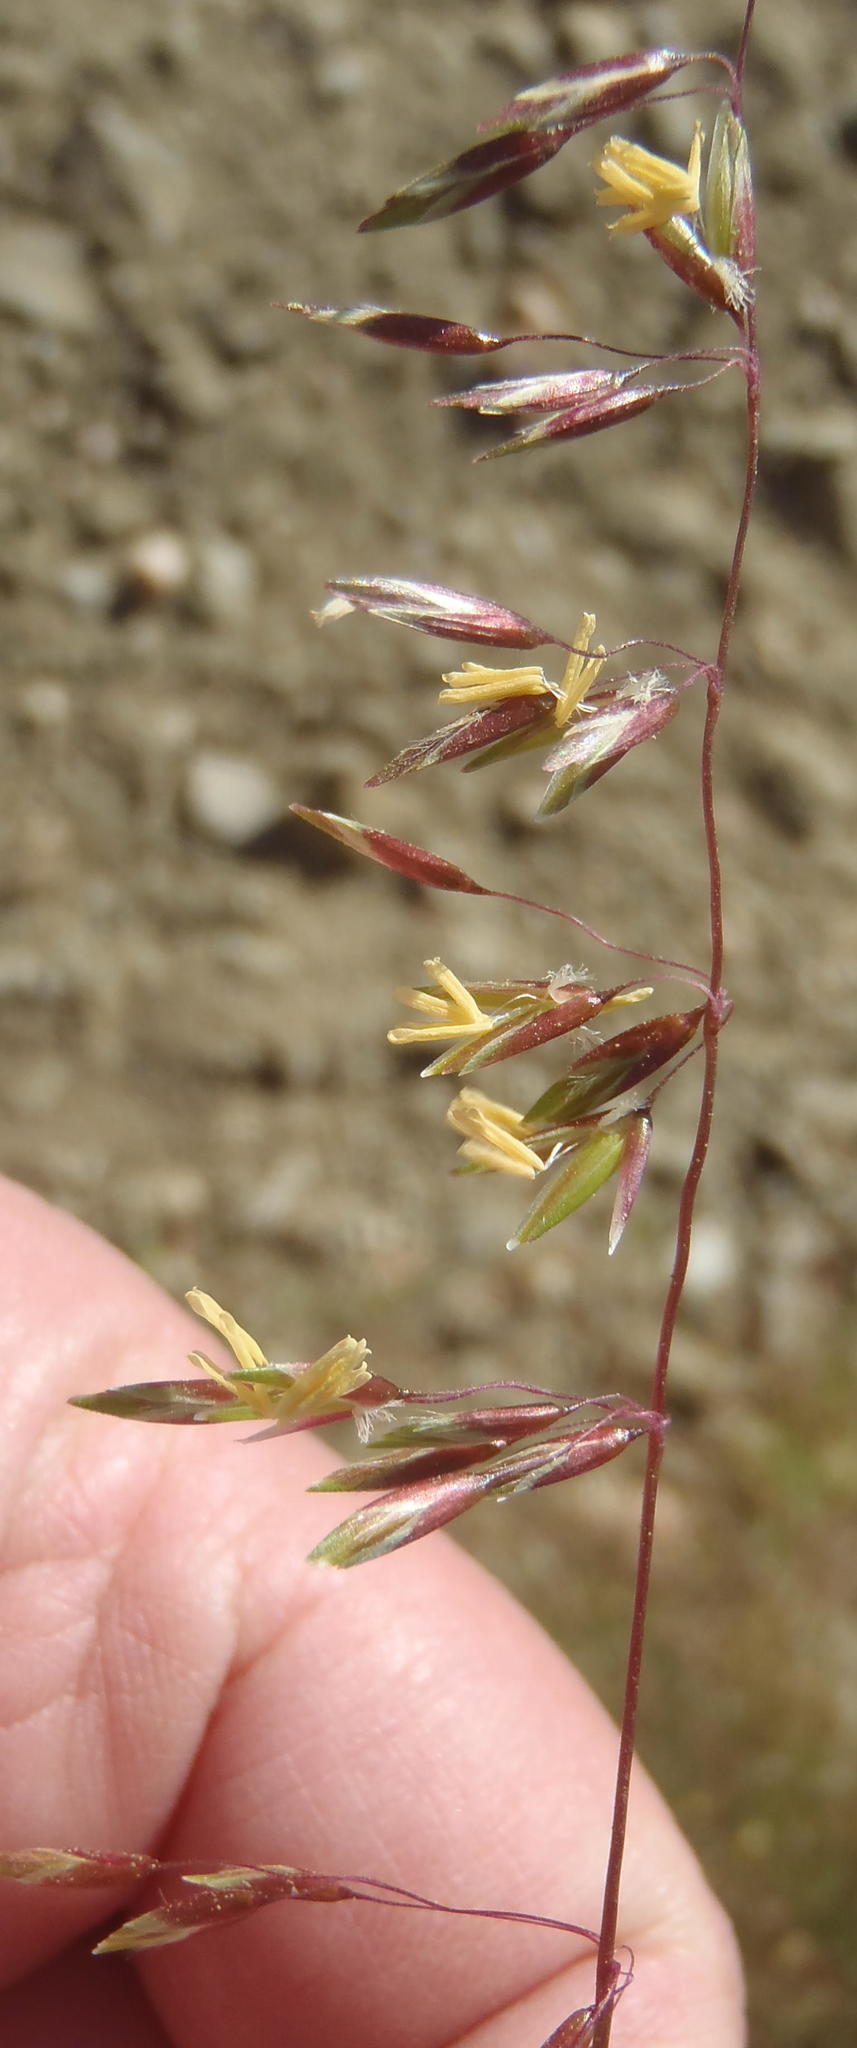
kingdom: Plantae
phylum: Tracheophyta
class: Liliopsida
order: Poales
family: Poaceae
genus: Ehrharta
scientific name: Ehrharta calycina
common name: Perennial veldtgrass
